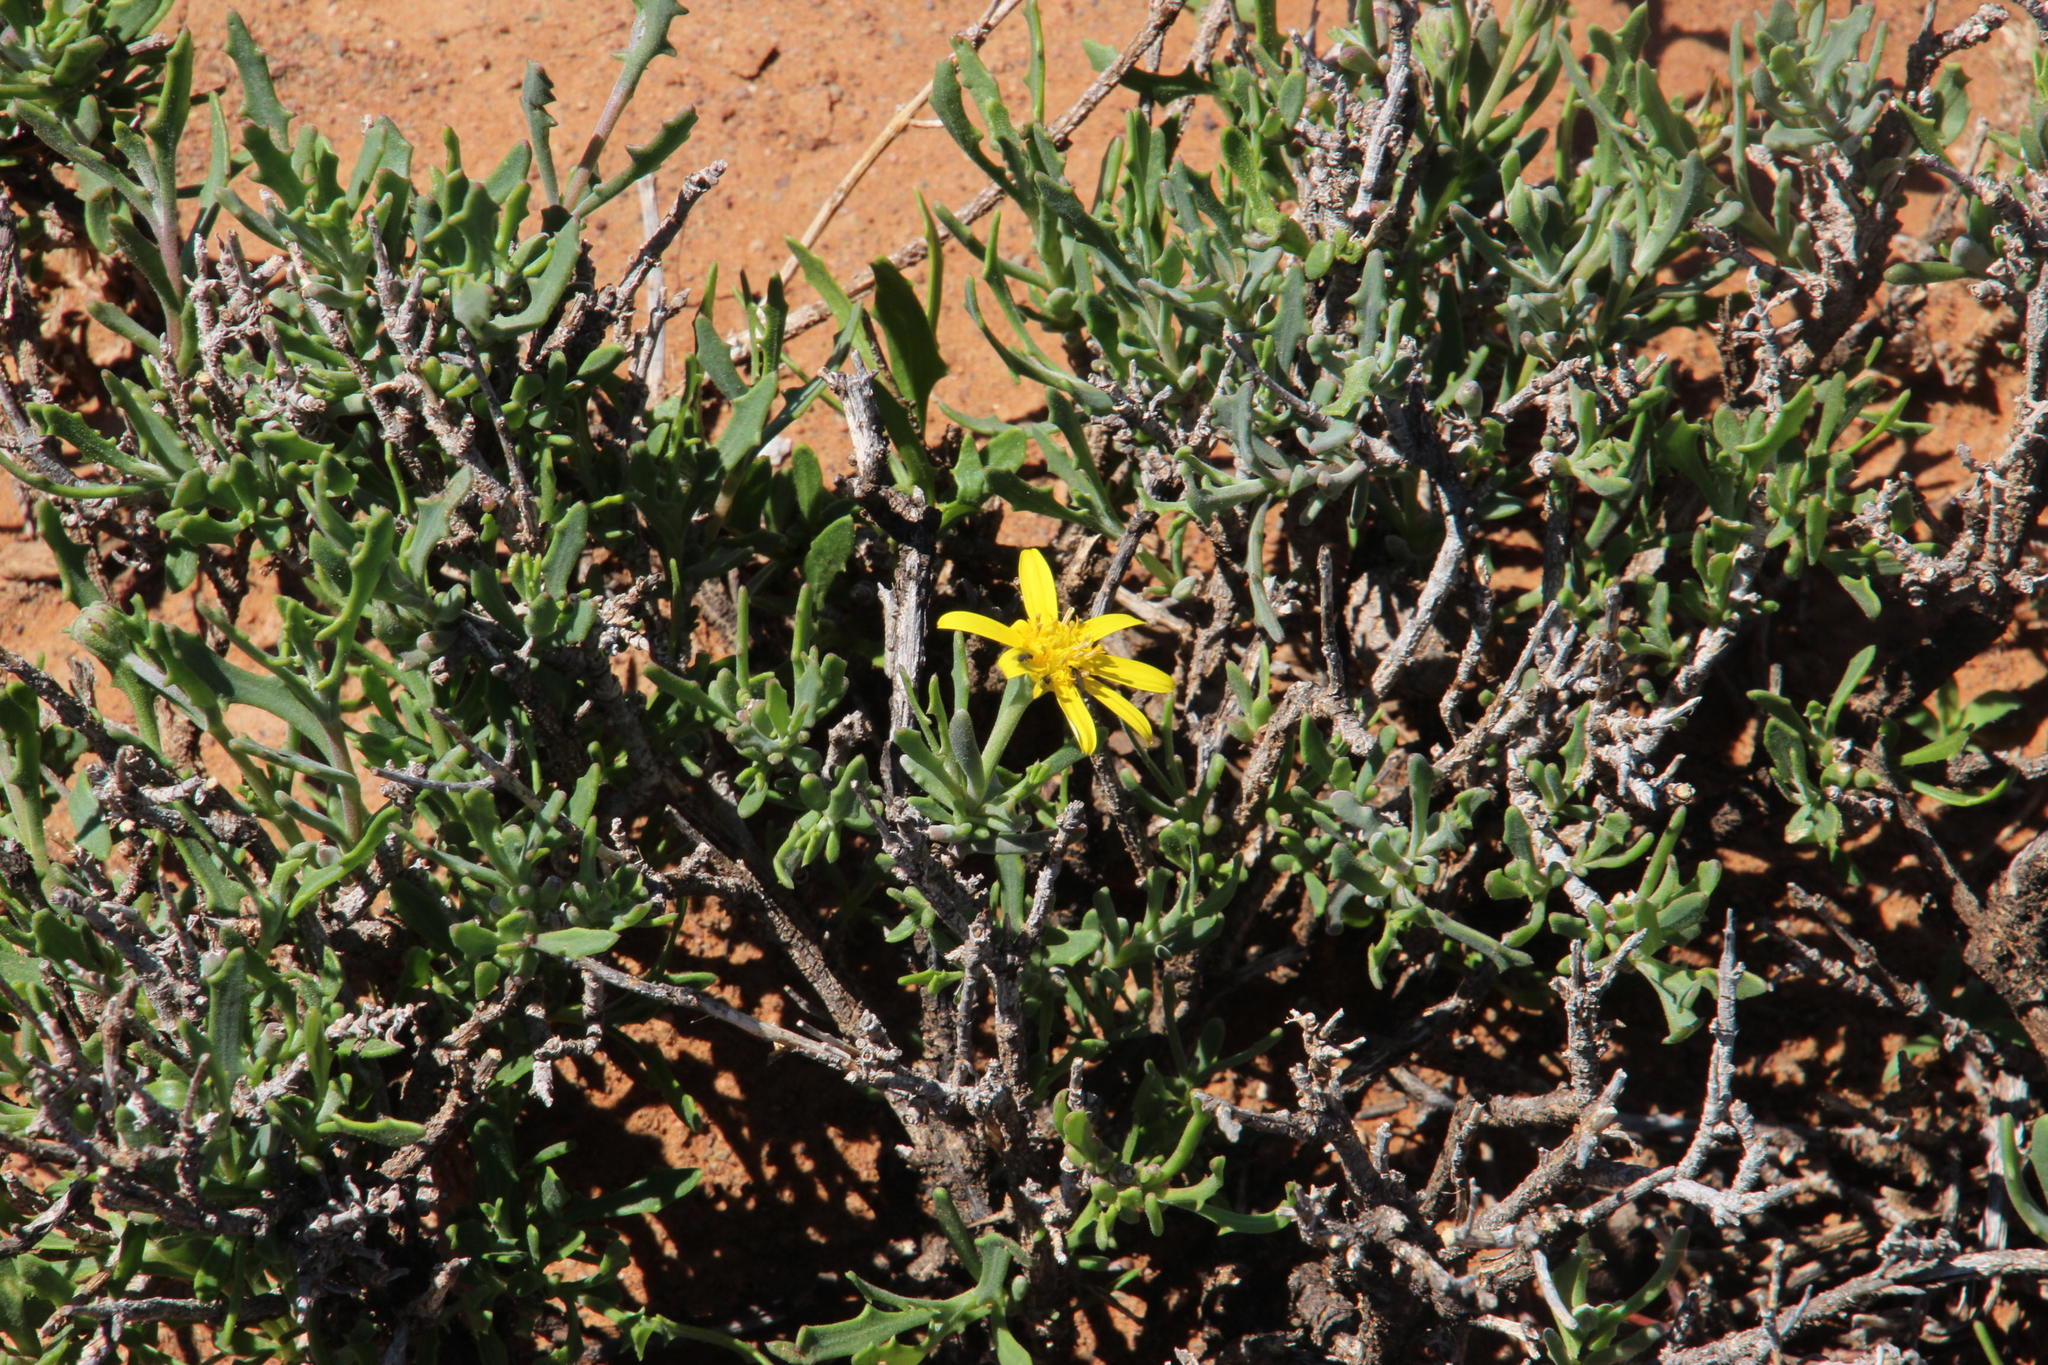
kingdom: Plantae
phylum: Tracheophyta
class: Magnoliopsida
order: Asterales
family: Asteraceae
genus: Osteospermum
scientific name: Osteospermum sinuatum
